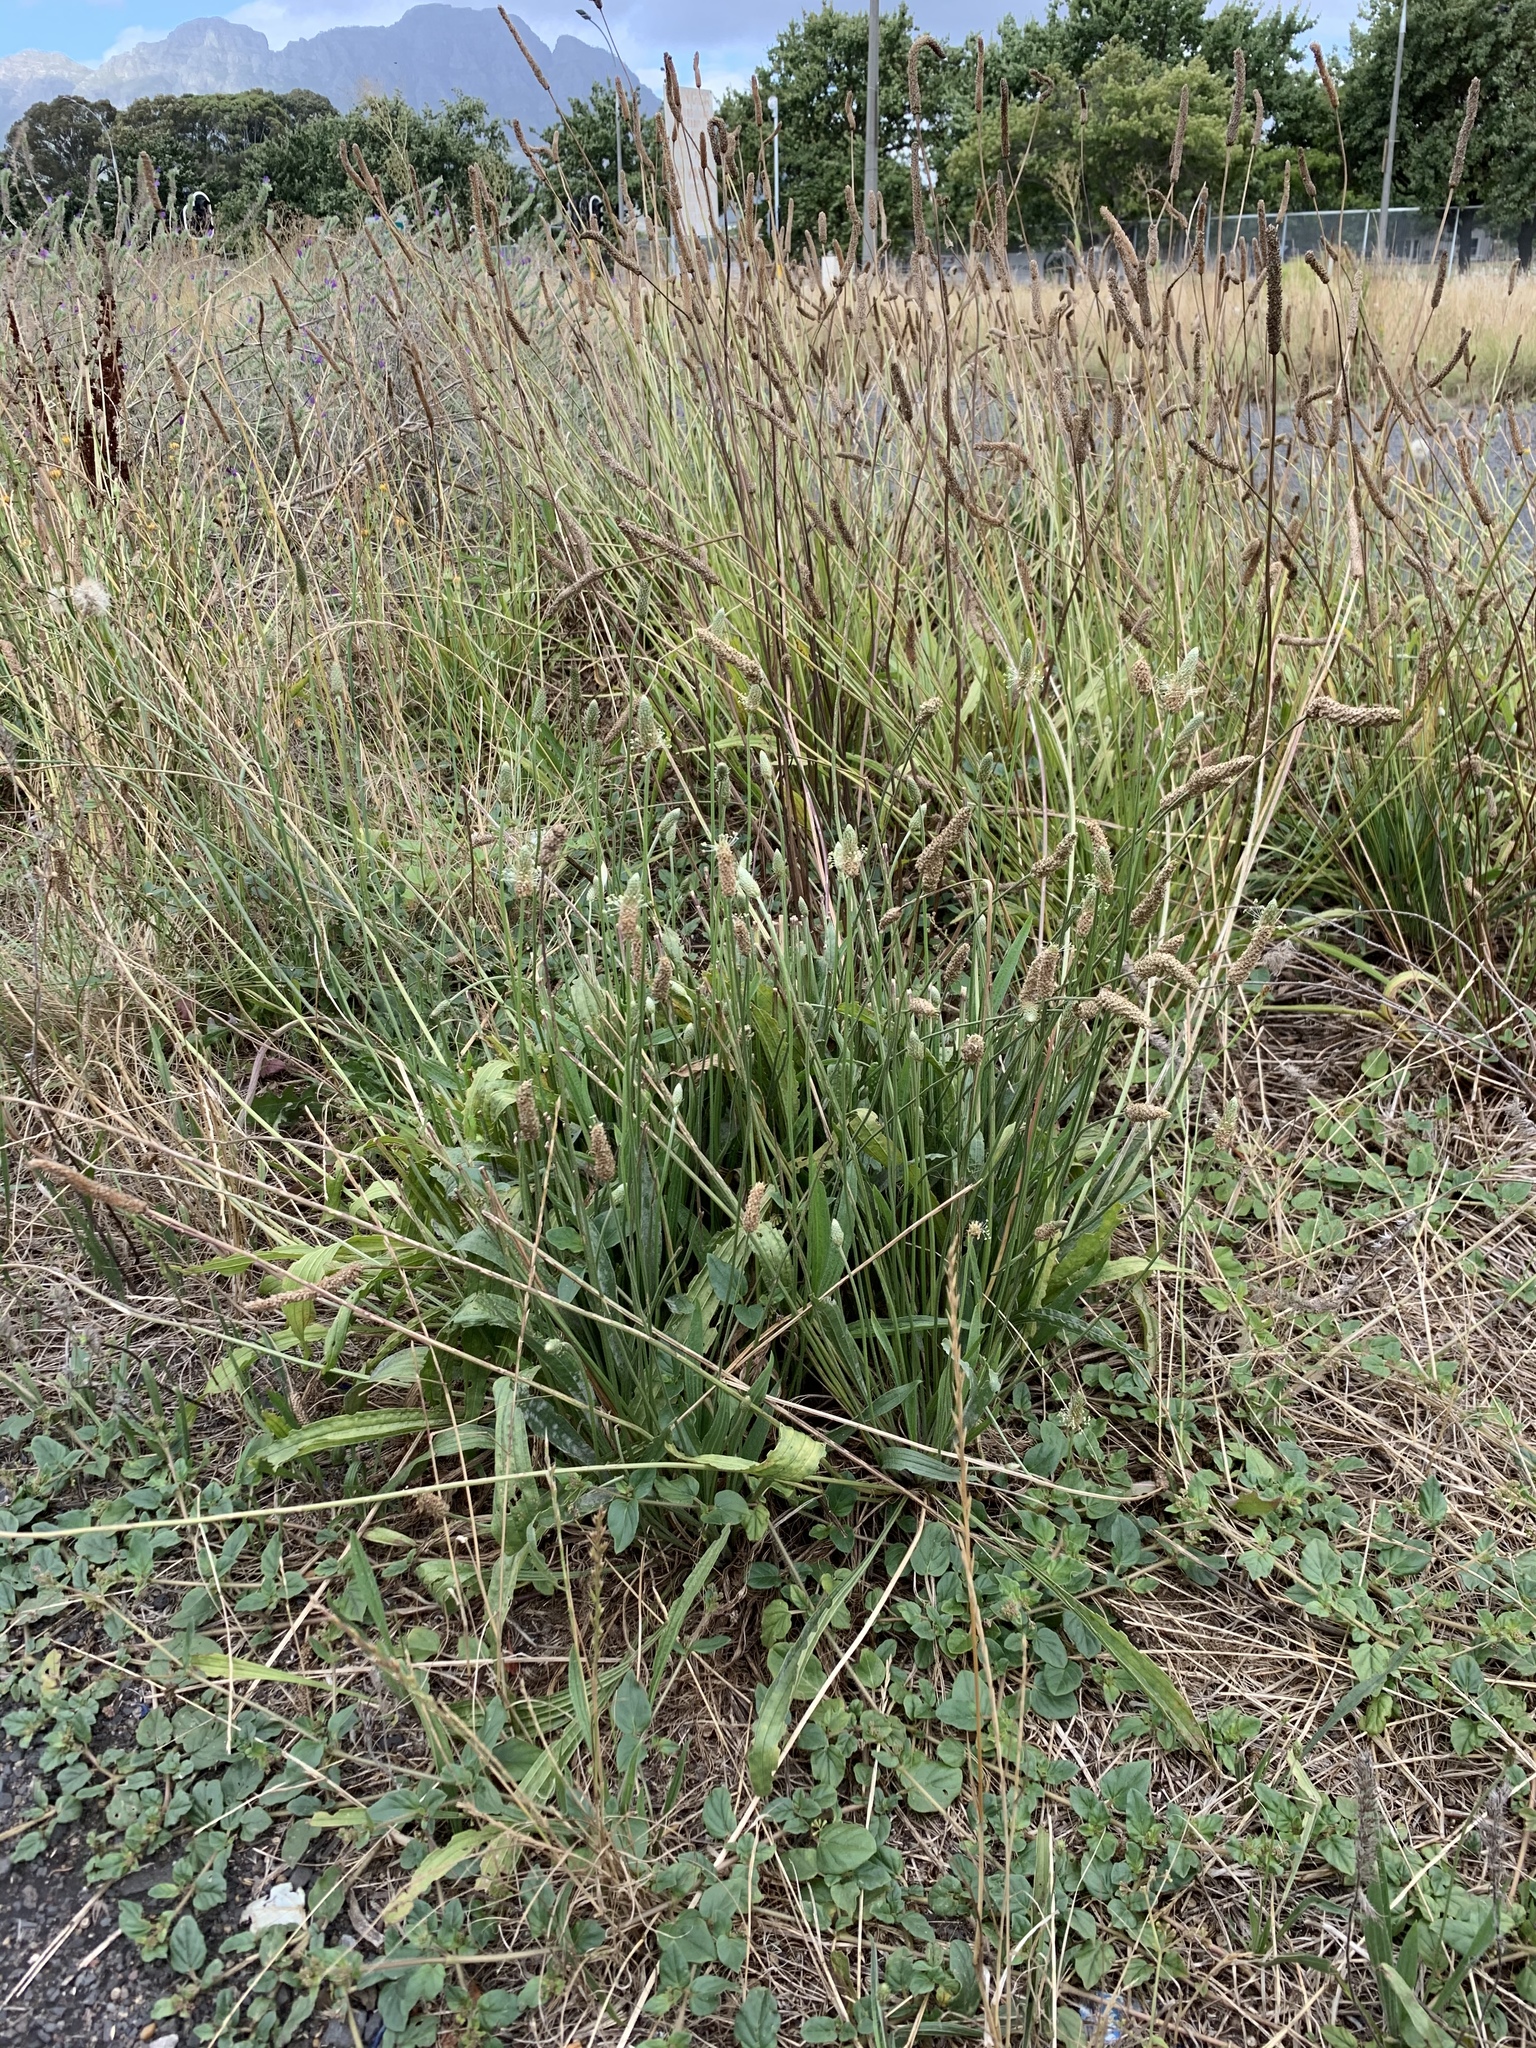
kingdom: Plantae
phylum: Tracheophyta
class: Magnoliopsida
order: Lamiales
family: Plantaginaceae
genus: Plantago
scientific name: Plantago lanceolata
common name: Ribwort plantain
